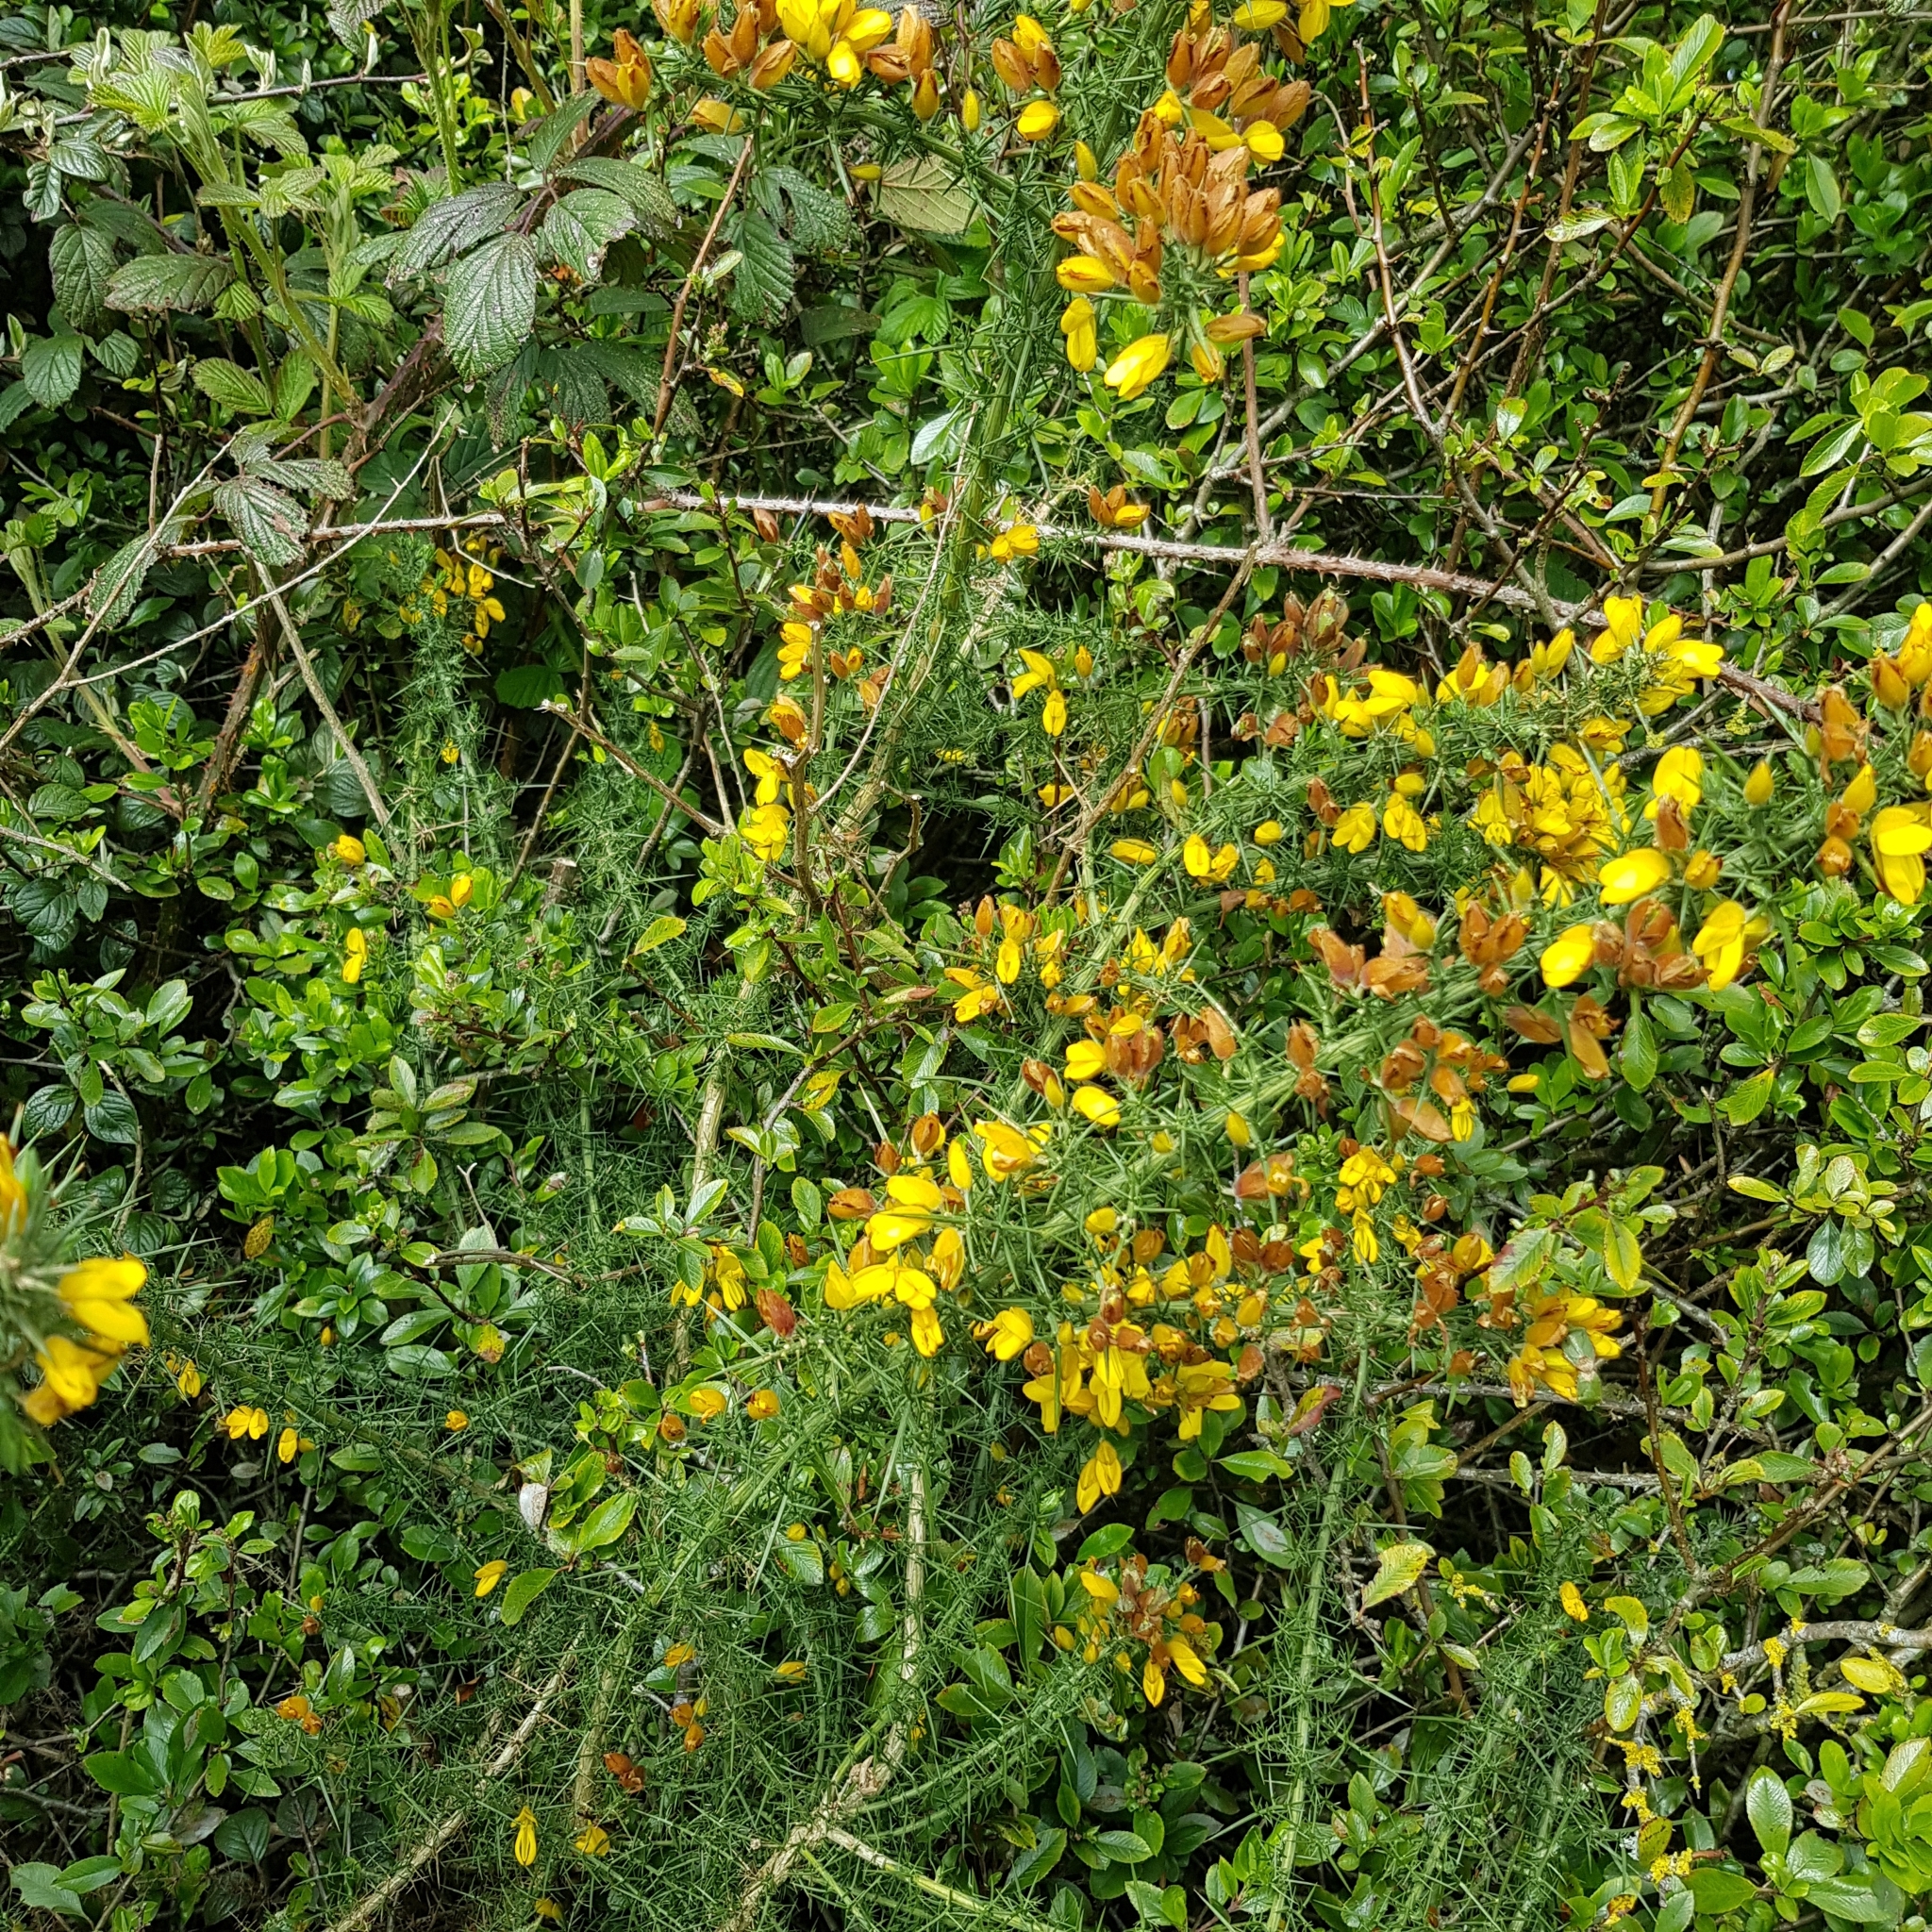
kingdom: Plantae
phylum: Tracheophyta
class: Magnoliopsida
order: Fabales
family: Fabaceae
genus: Ulex
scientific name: Ulex europaeus
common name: Common gorse
